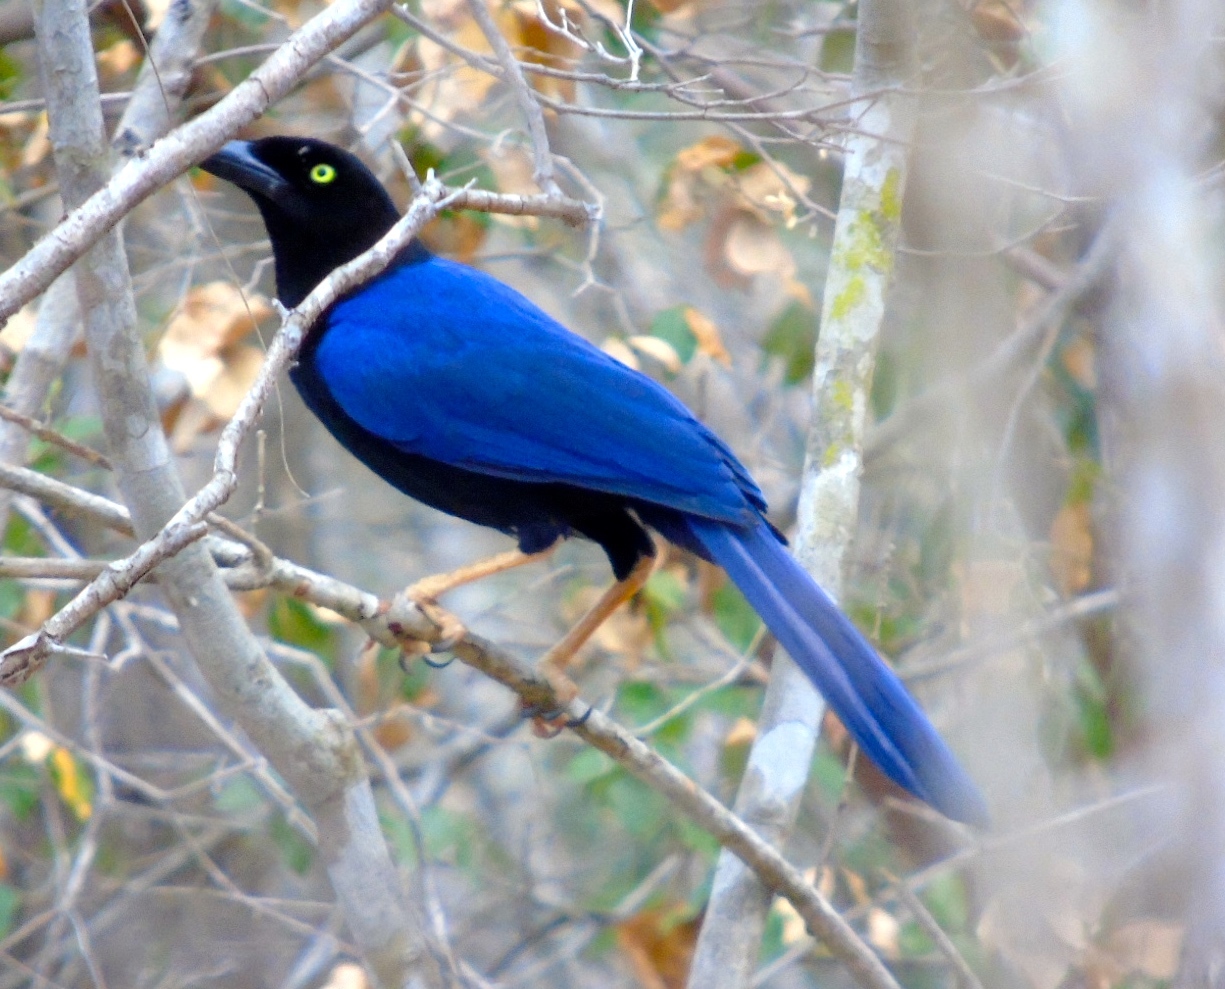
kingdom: Animalia
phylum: Chordata
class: Aves
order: Passeriformes
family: Corvidae
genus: Cyanocorax
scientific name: Cyanocorax beecheii
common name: Purplish-backed jay
